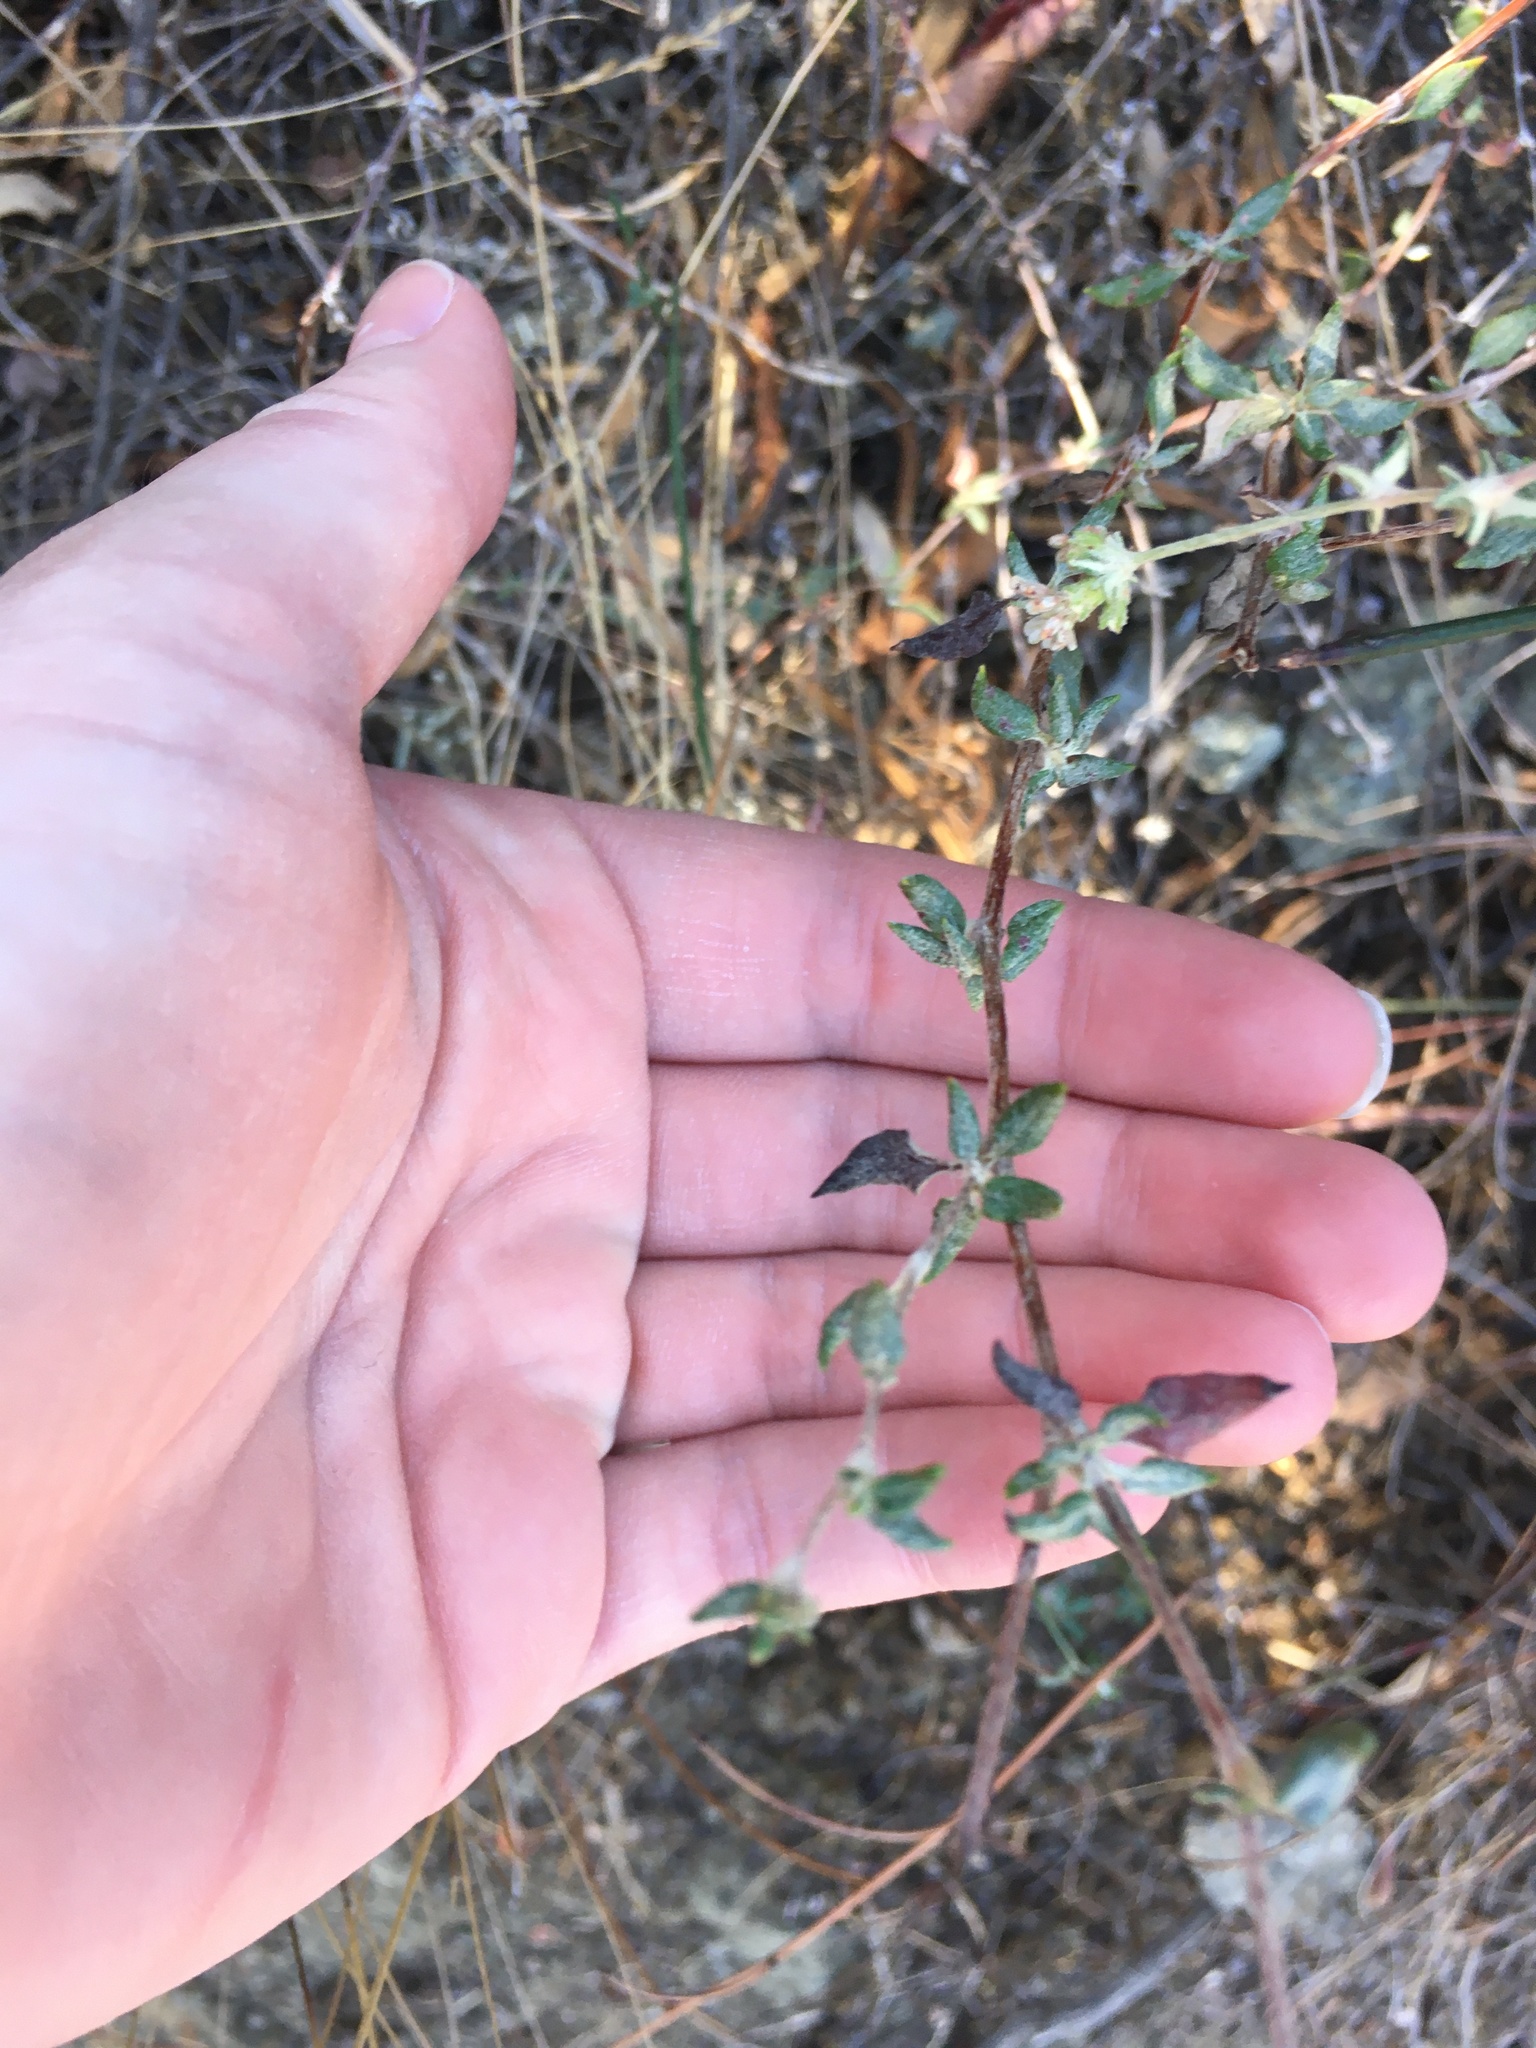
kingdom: Plantae
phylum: Tracheophyta
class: Magnoliopsida
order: Caryophyllales
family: Polygonaceae
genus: Eriogonum
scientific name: Eriogonum parvifolium
